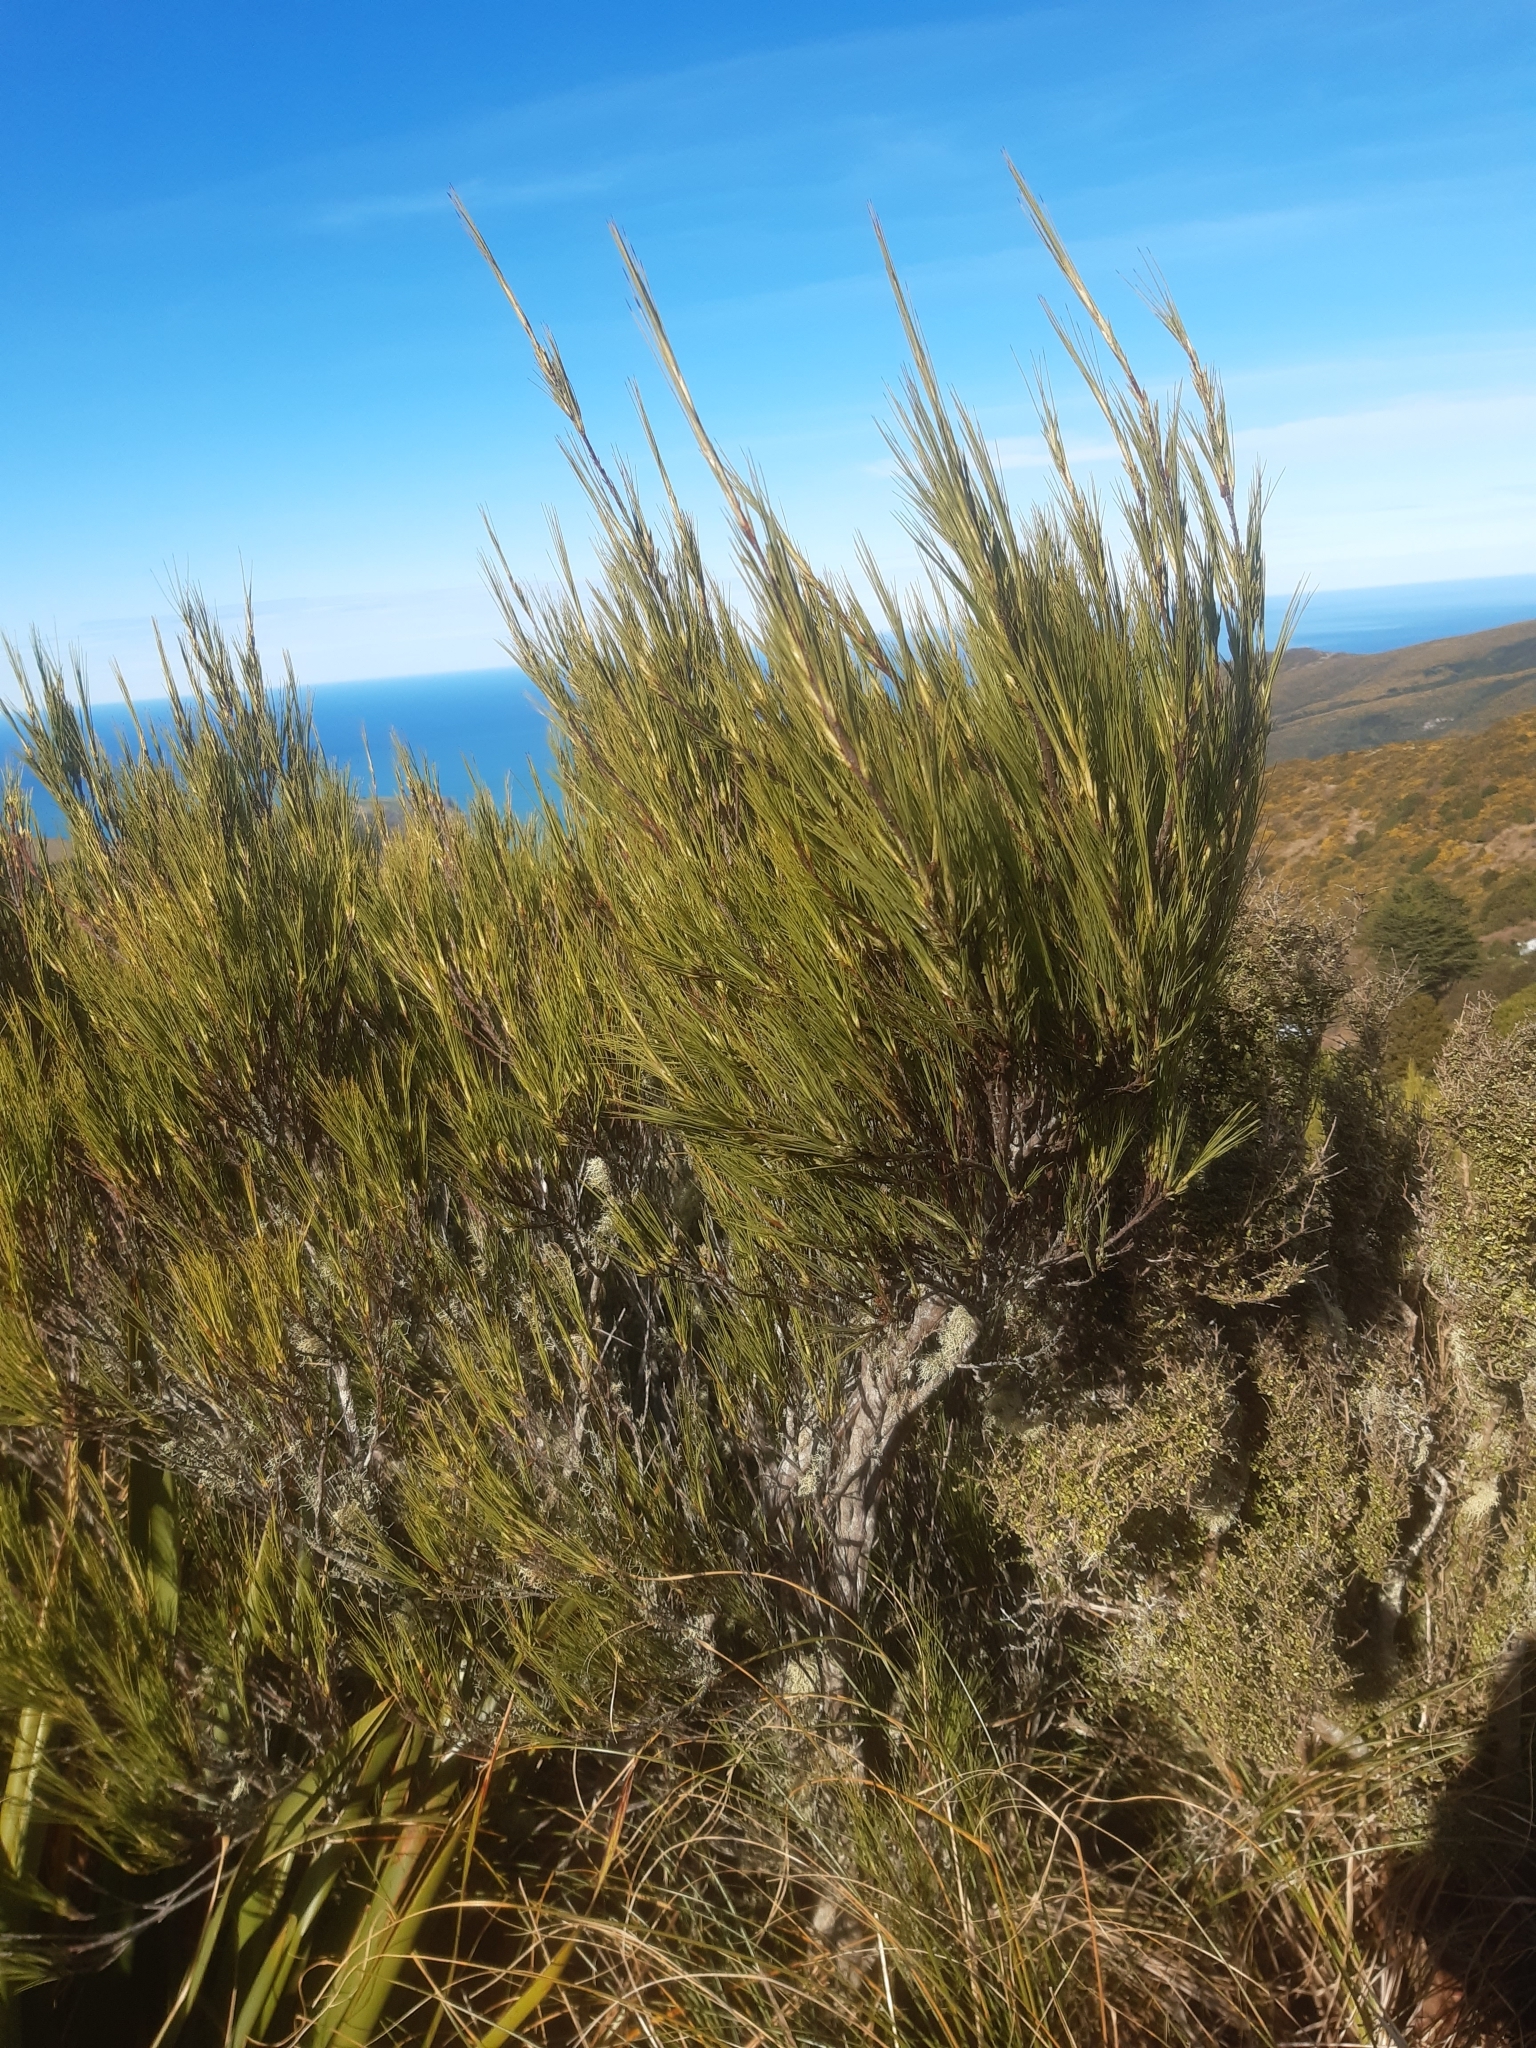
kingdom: Plantae
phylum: Tracheophyta
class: Magnoliopsida
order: Ericales
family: Ericaceae
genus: Dracophyllum
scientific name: Dracophyllum acerosum
